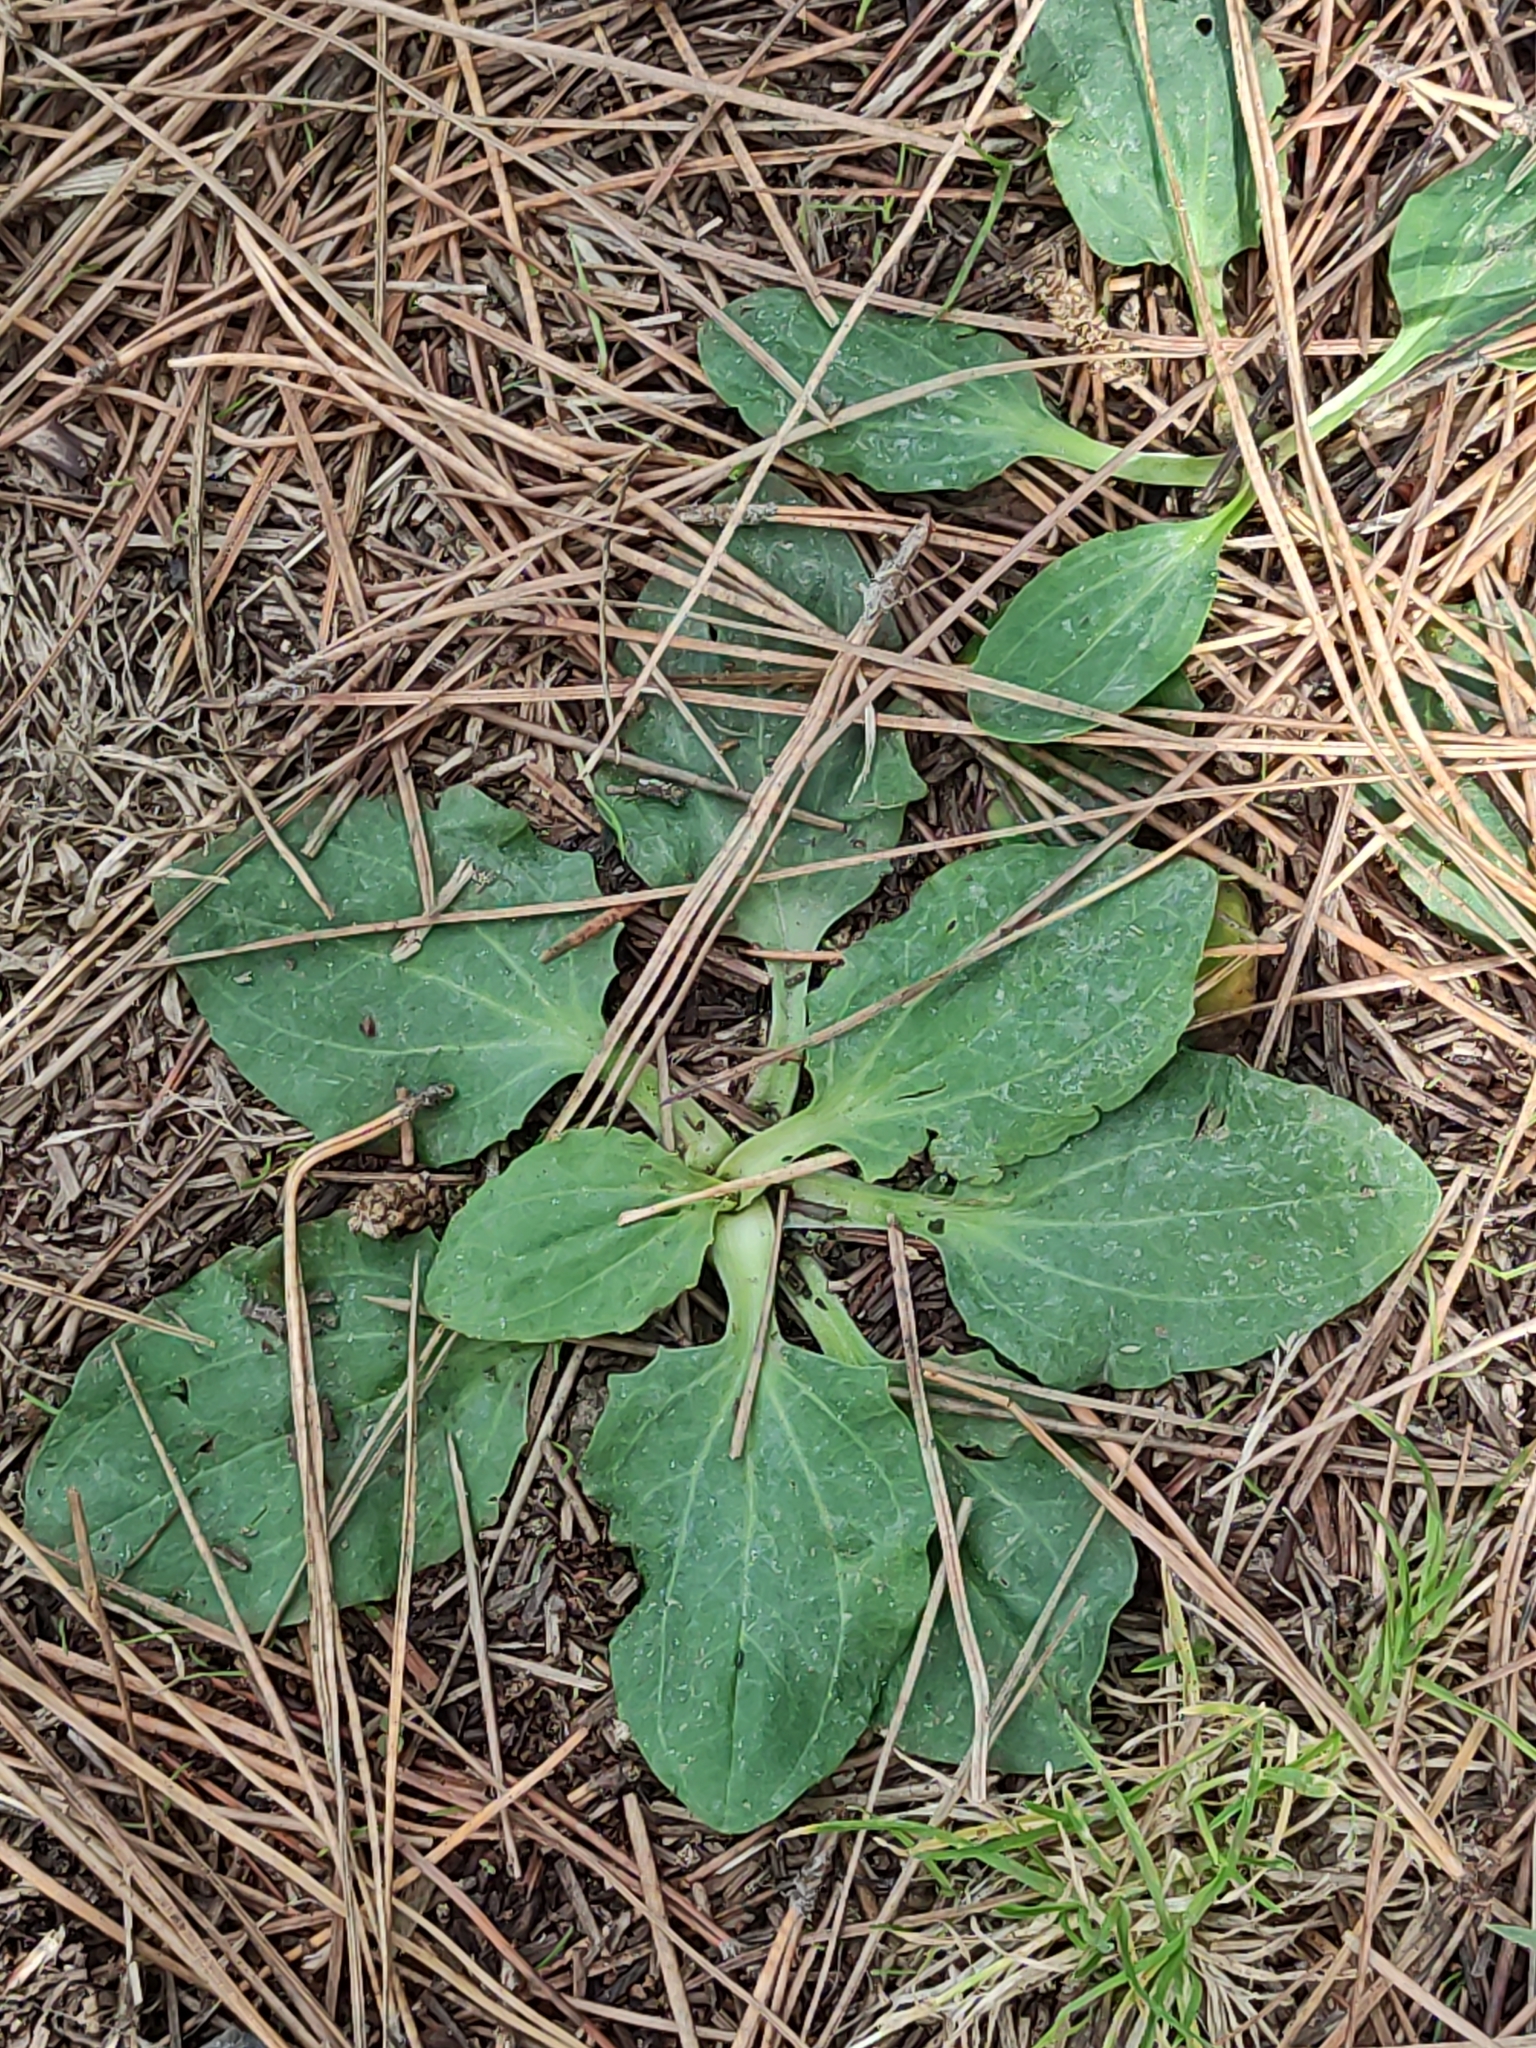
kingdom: Plantae
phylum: Tracheophyta
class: Magnoliopsida
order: Lamiales
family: Plantaginaceae
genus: Plantago
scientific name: Plantago major
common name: Common plantain
